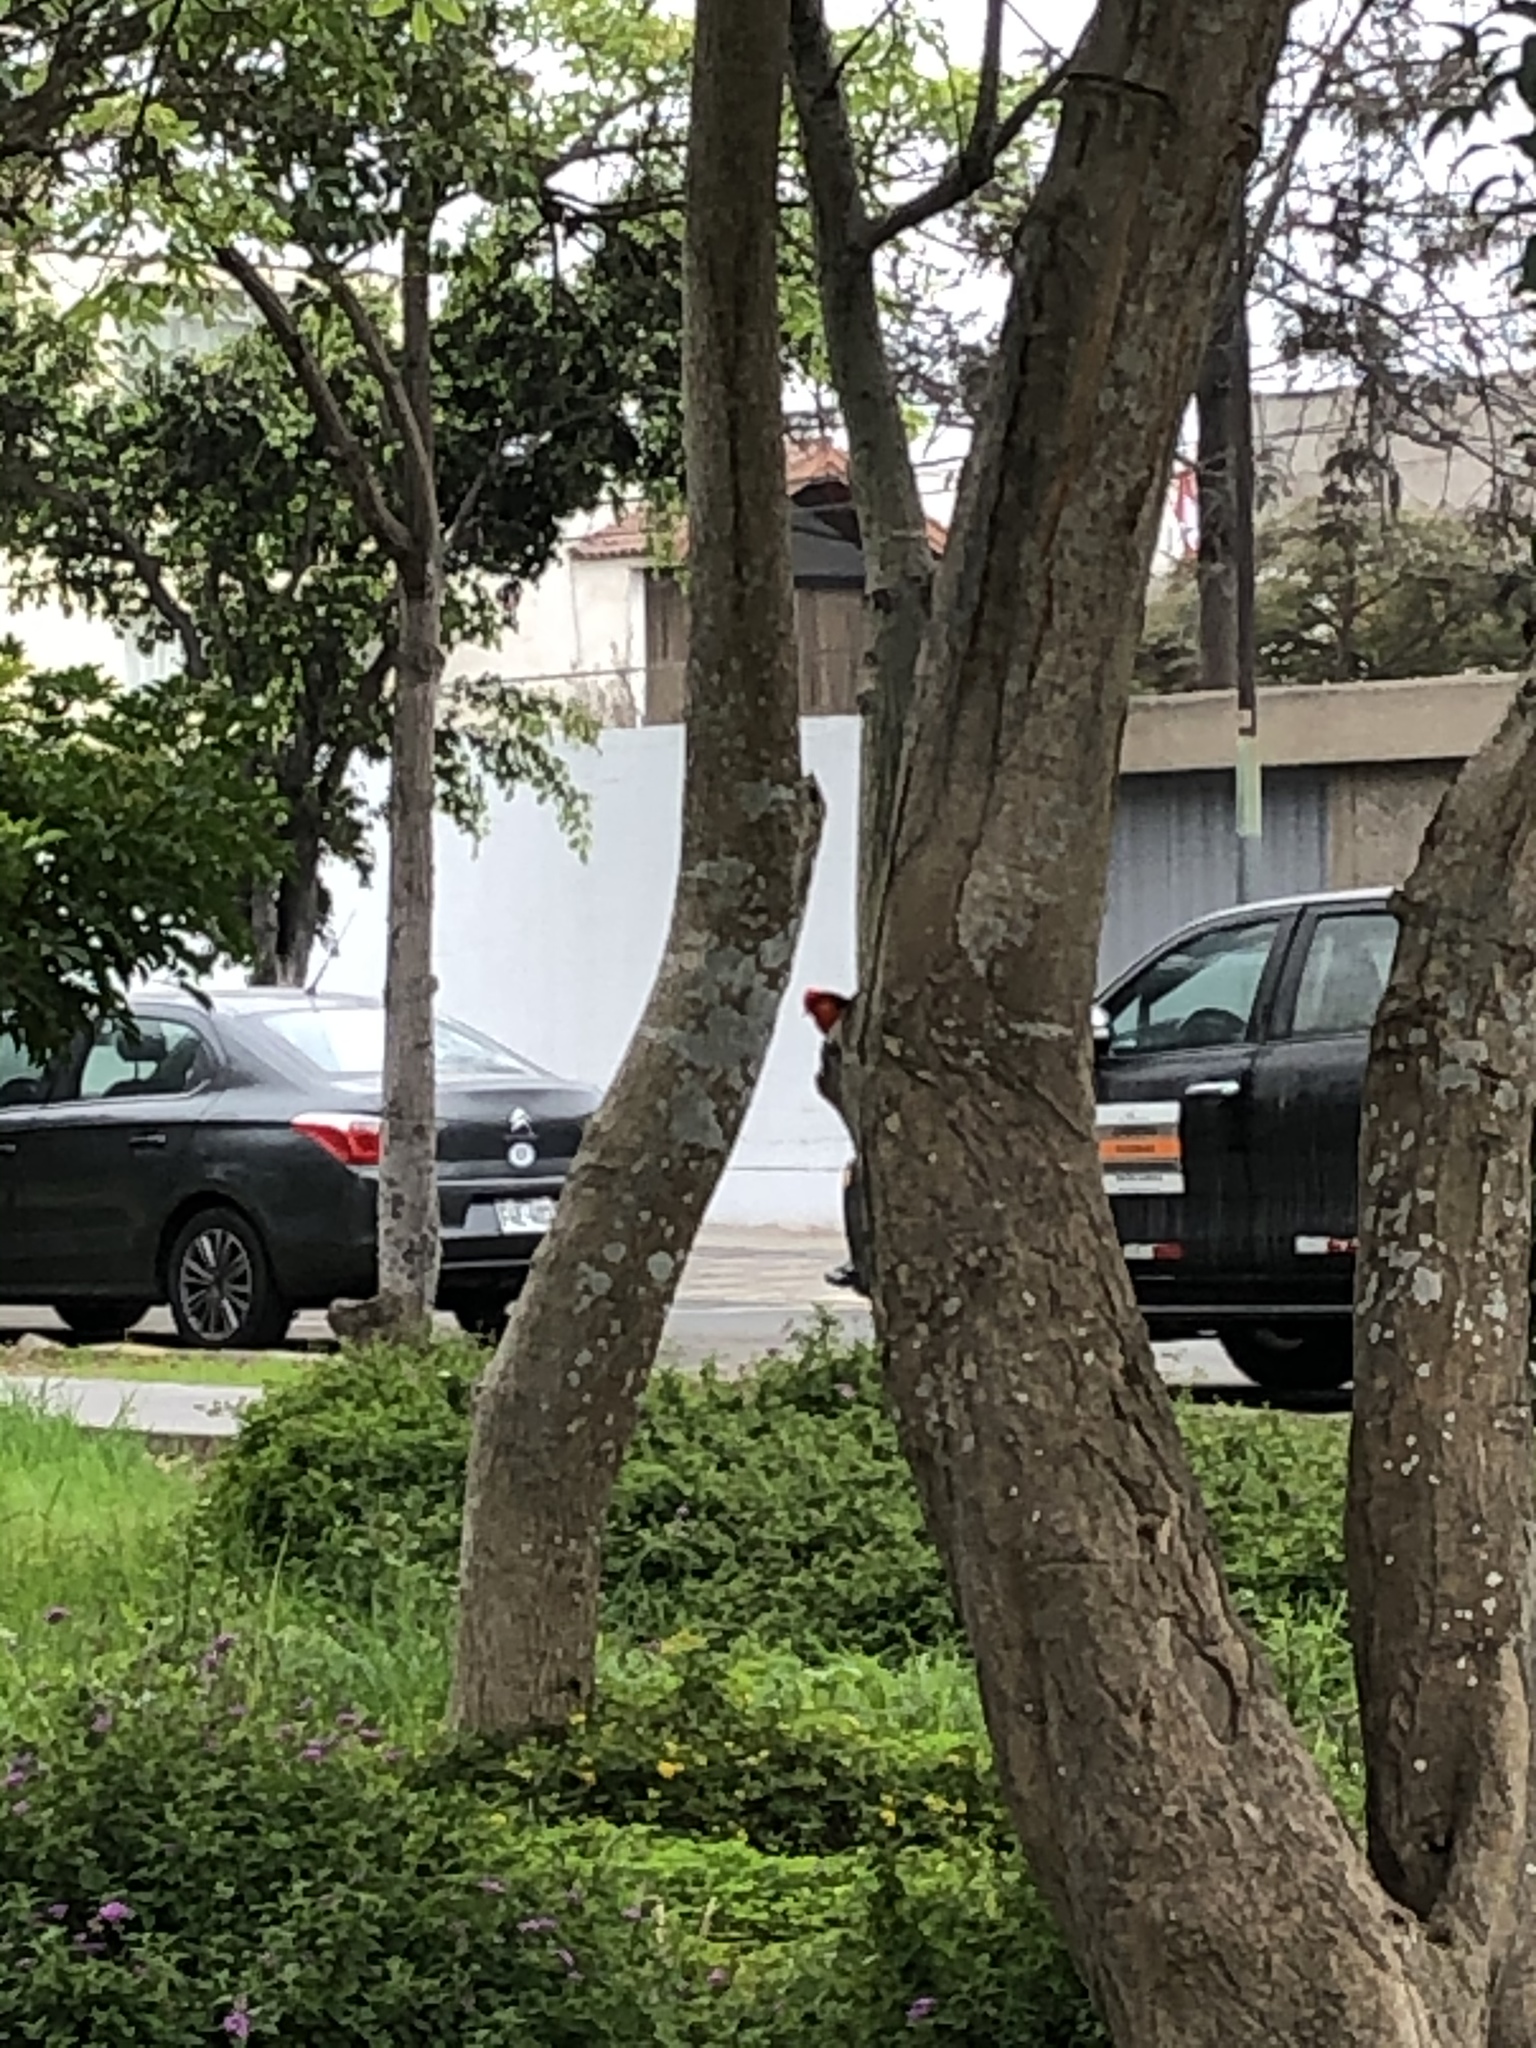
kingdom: Animalia
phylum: Chordata
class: Aves
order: Passeriformes
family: Tyrannidae
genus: Pyrocephalus
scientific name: Pyrocephalus rubinus
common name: Vermilion flycatcher
